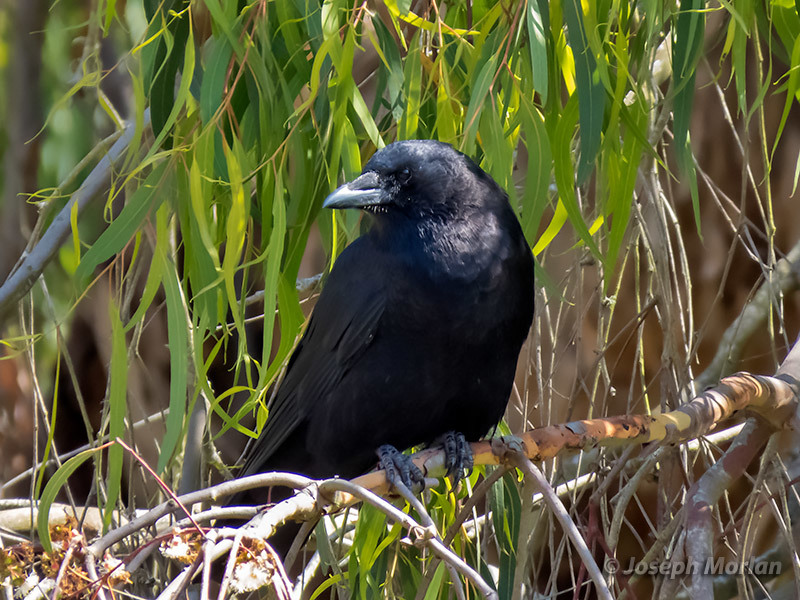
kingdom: Animalia
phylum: Chordata
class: Aves
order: Passeriformes
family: Corvidae
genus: Corvus
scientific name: Corvus brachyrhynchos
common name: American crow
